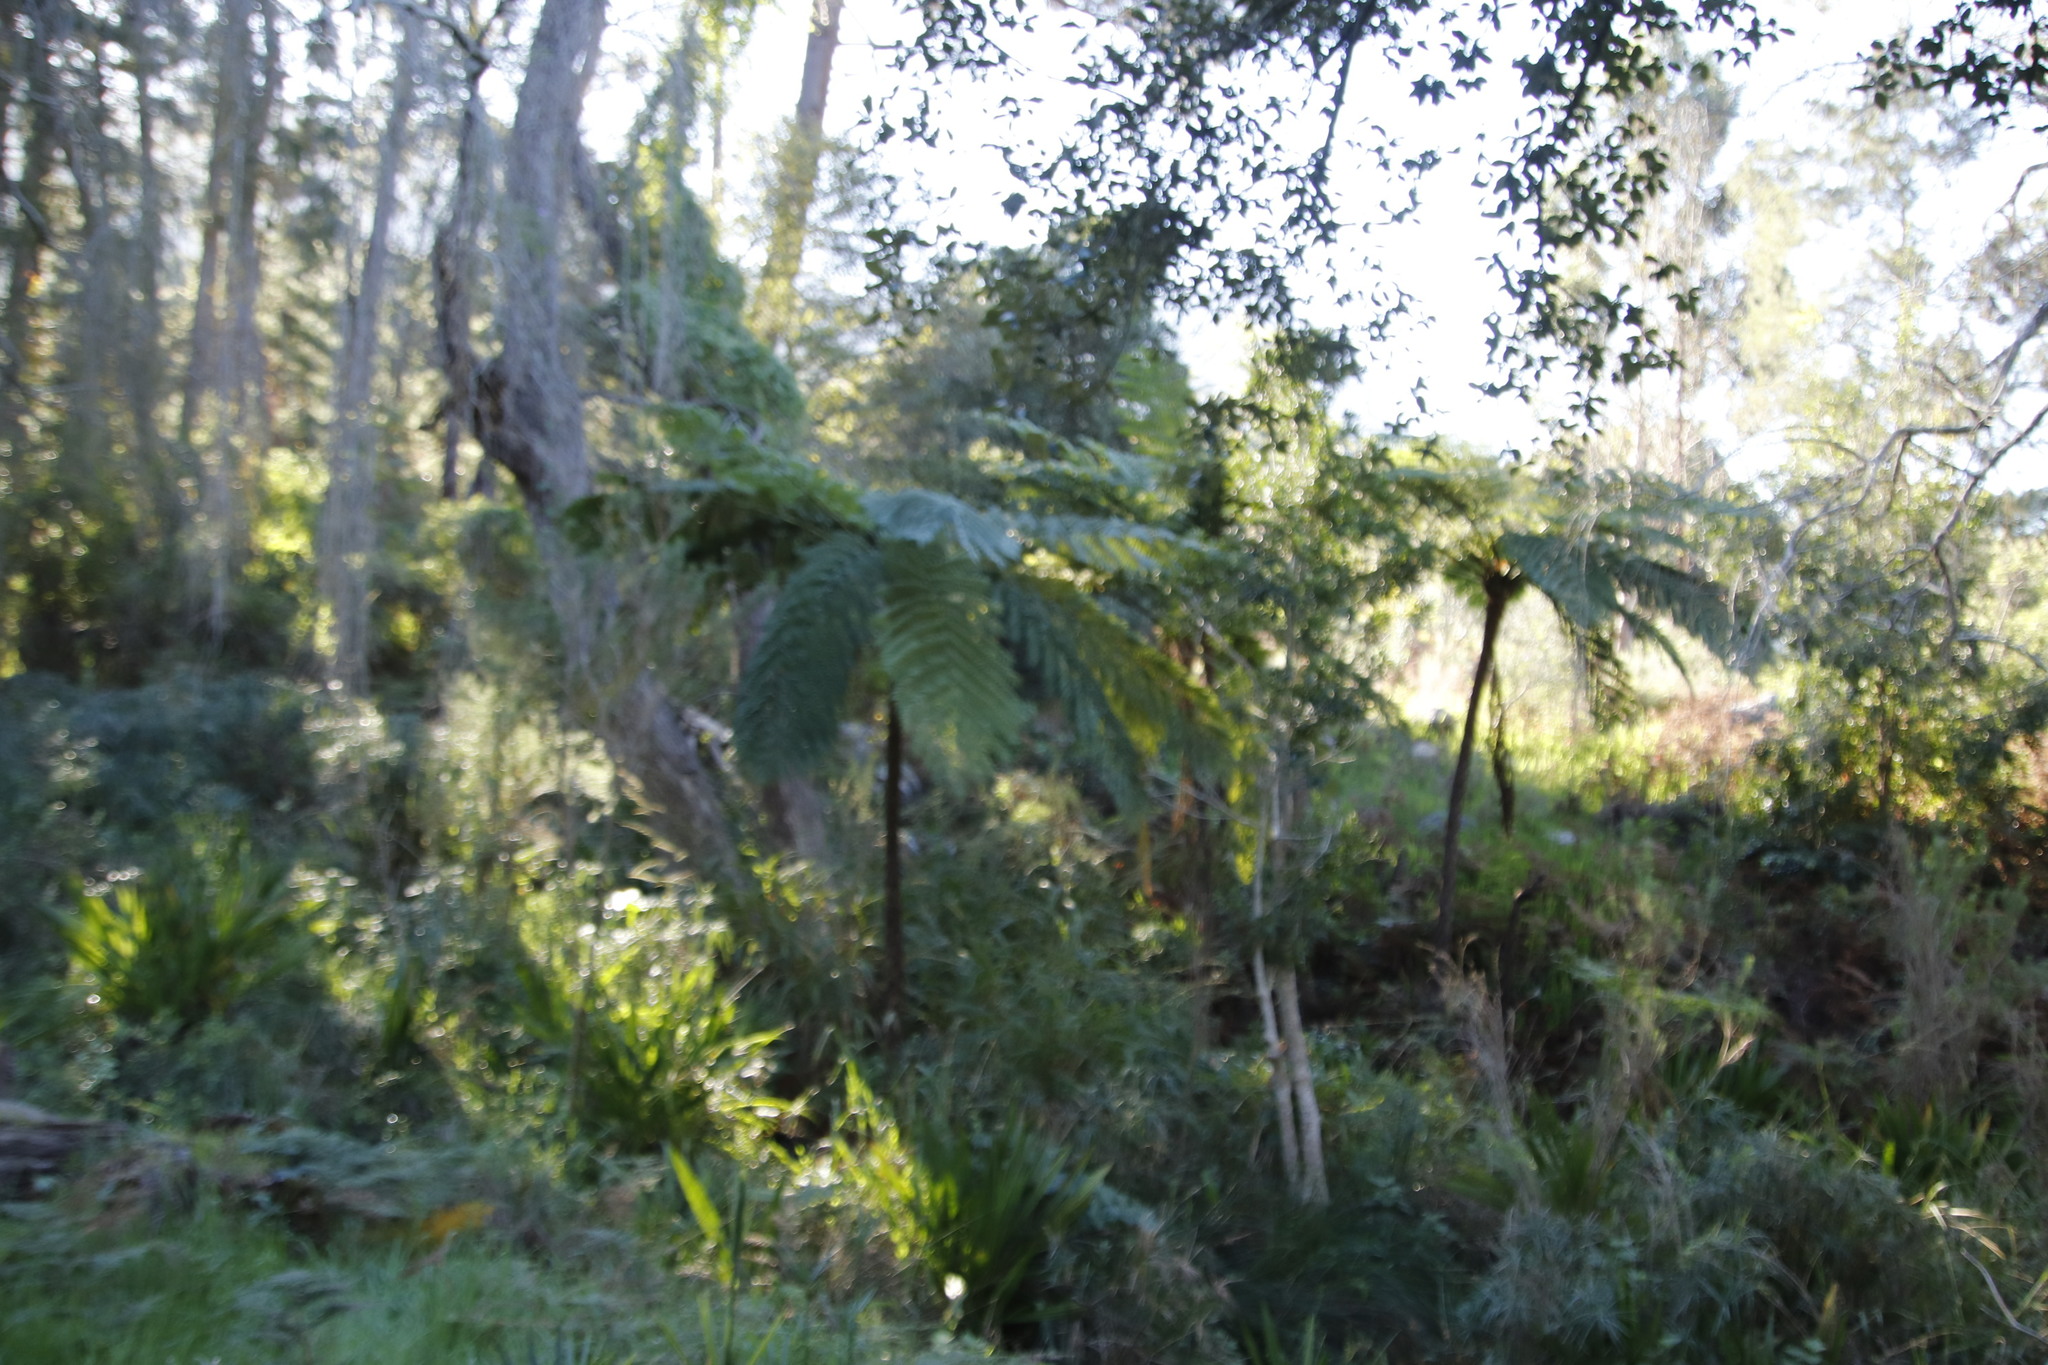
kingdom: Plantae
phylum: Tracheophyta
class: Polypodiopsida
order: Cyatheales
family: Cyatheaceae
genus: Sphaeropteris
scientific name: Sphaeropteris cooperi
